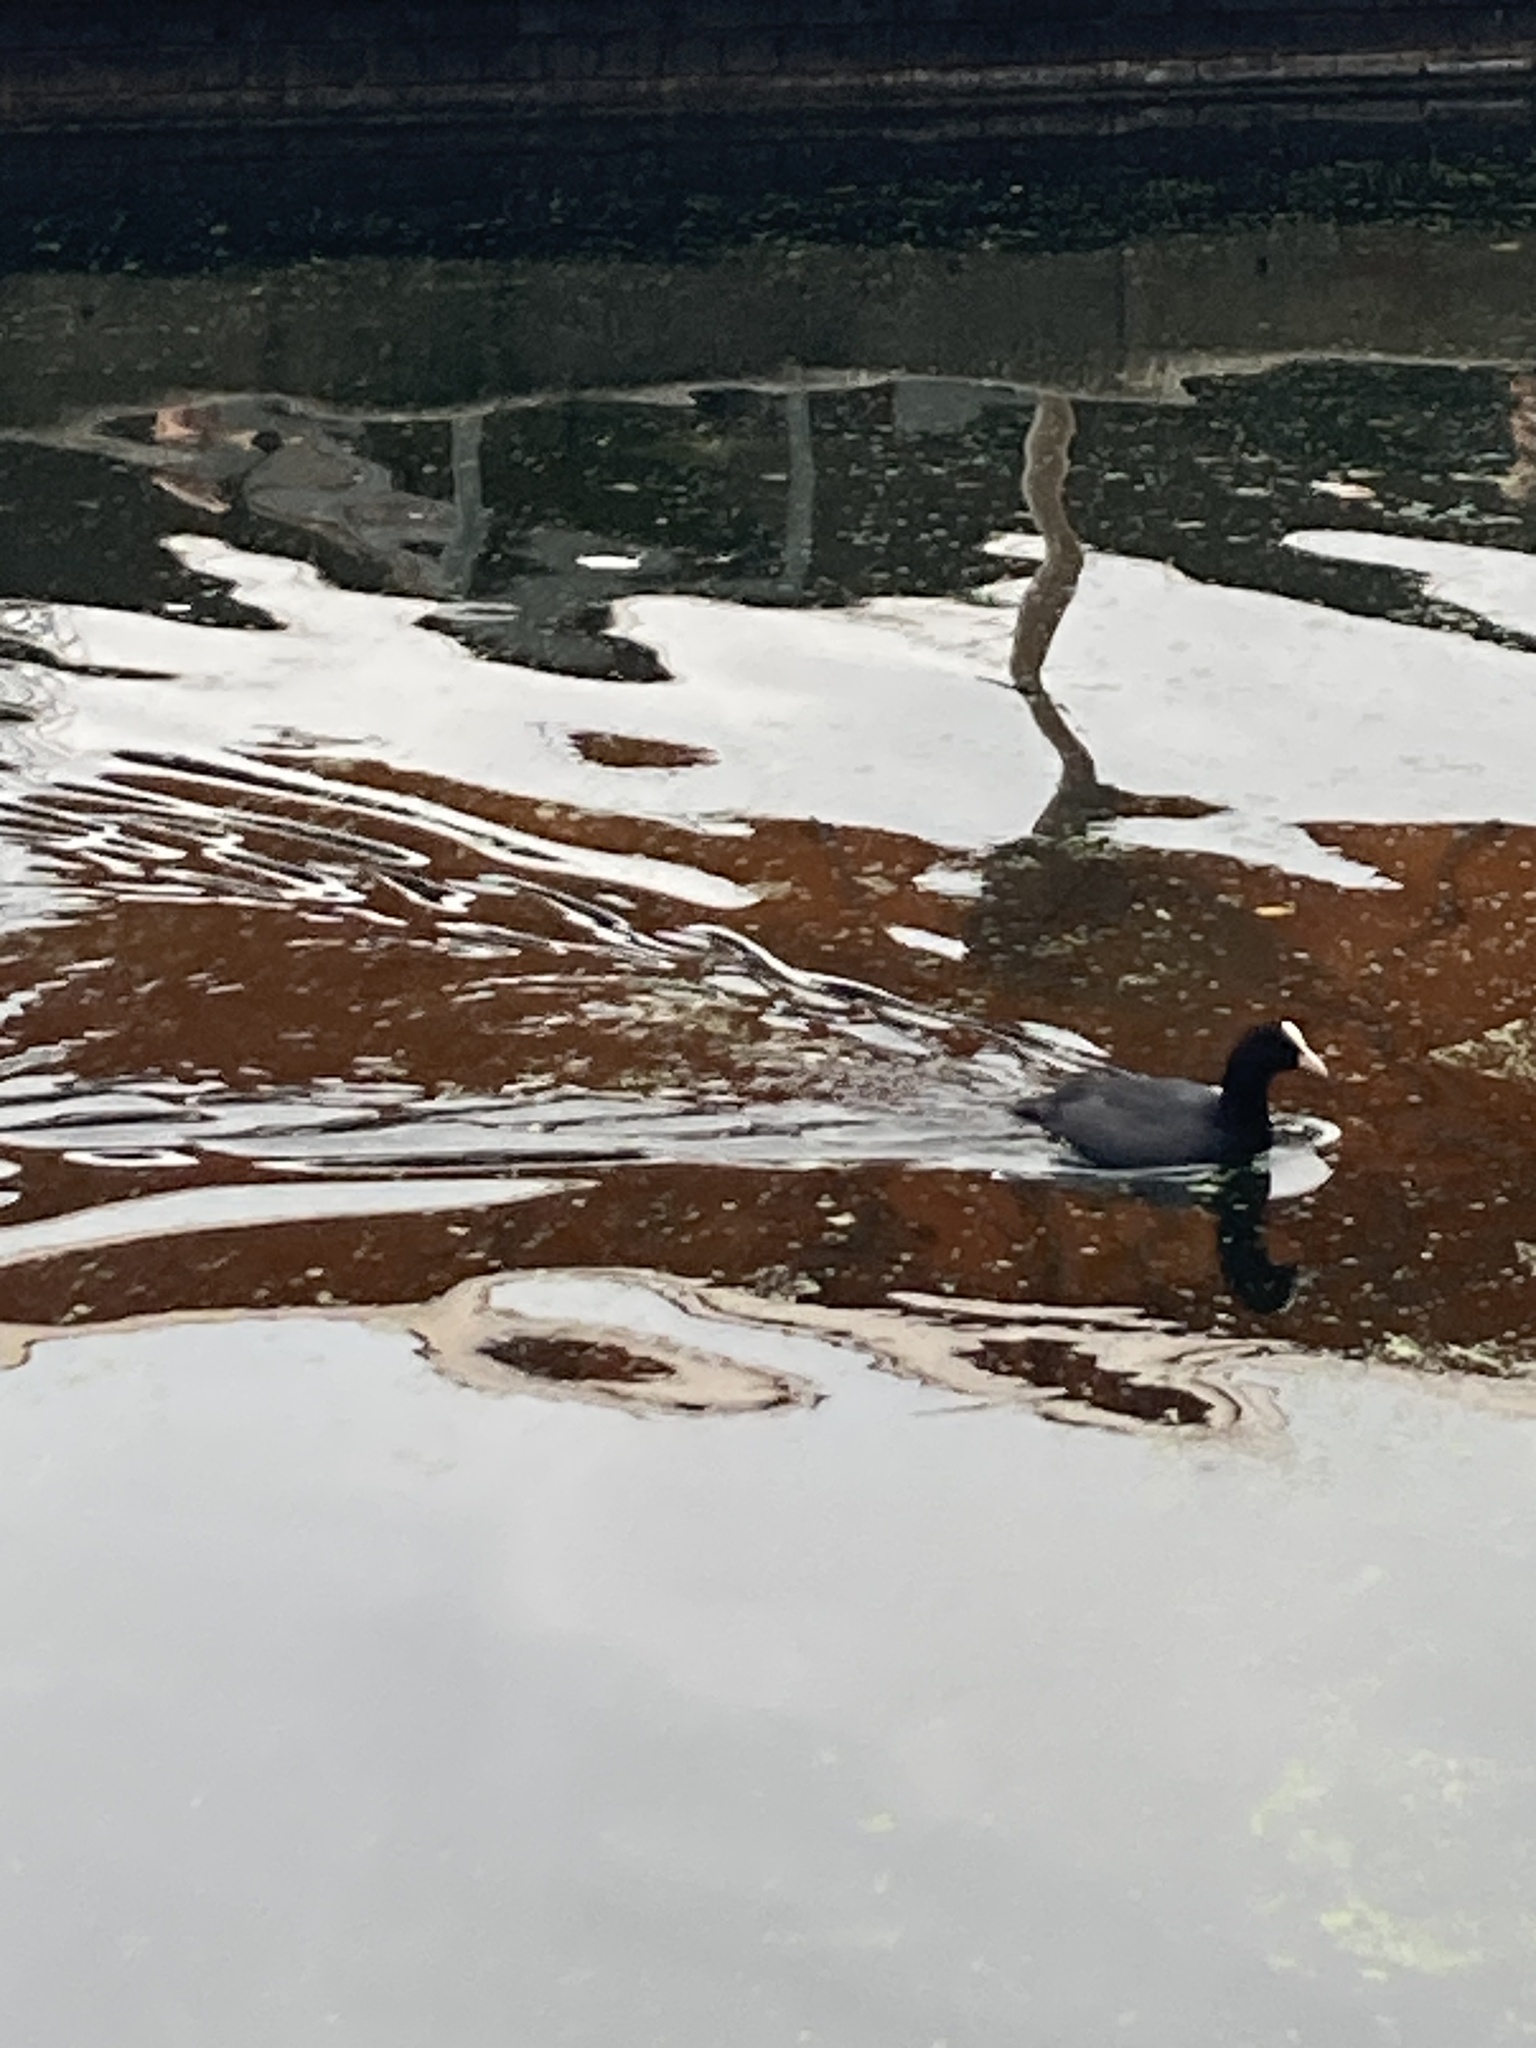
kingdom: Animalia
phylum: Chordata
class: Aves
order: Gruiformes
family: Rallidae
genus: Fulica
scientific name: Fulica atra
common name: Eurasian coot
